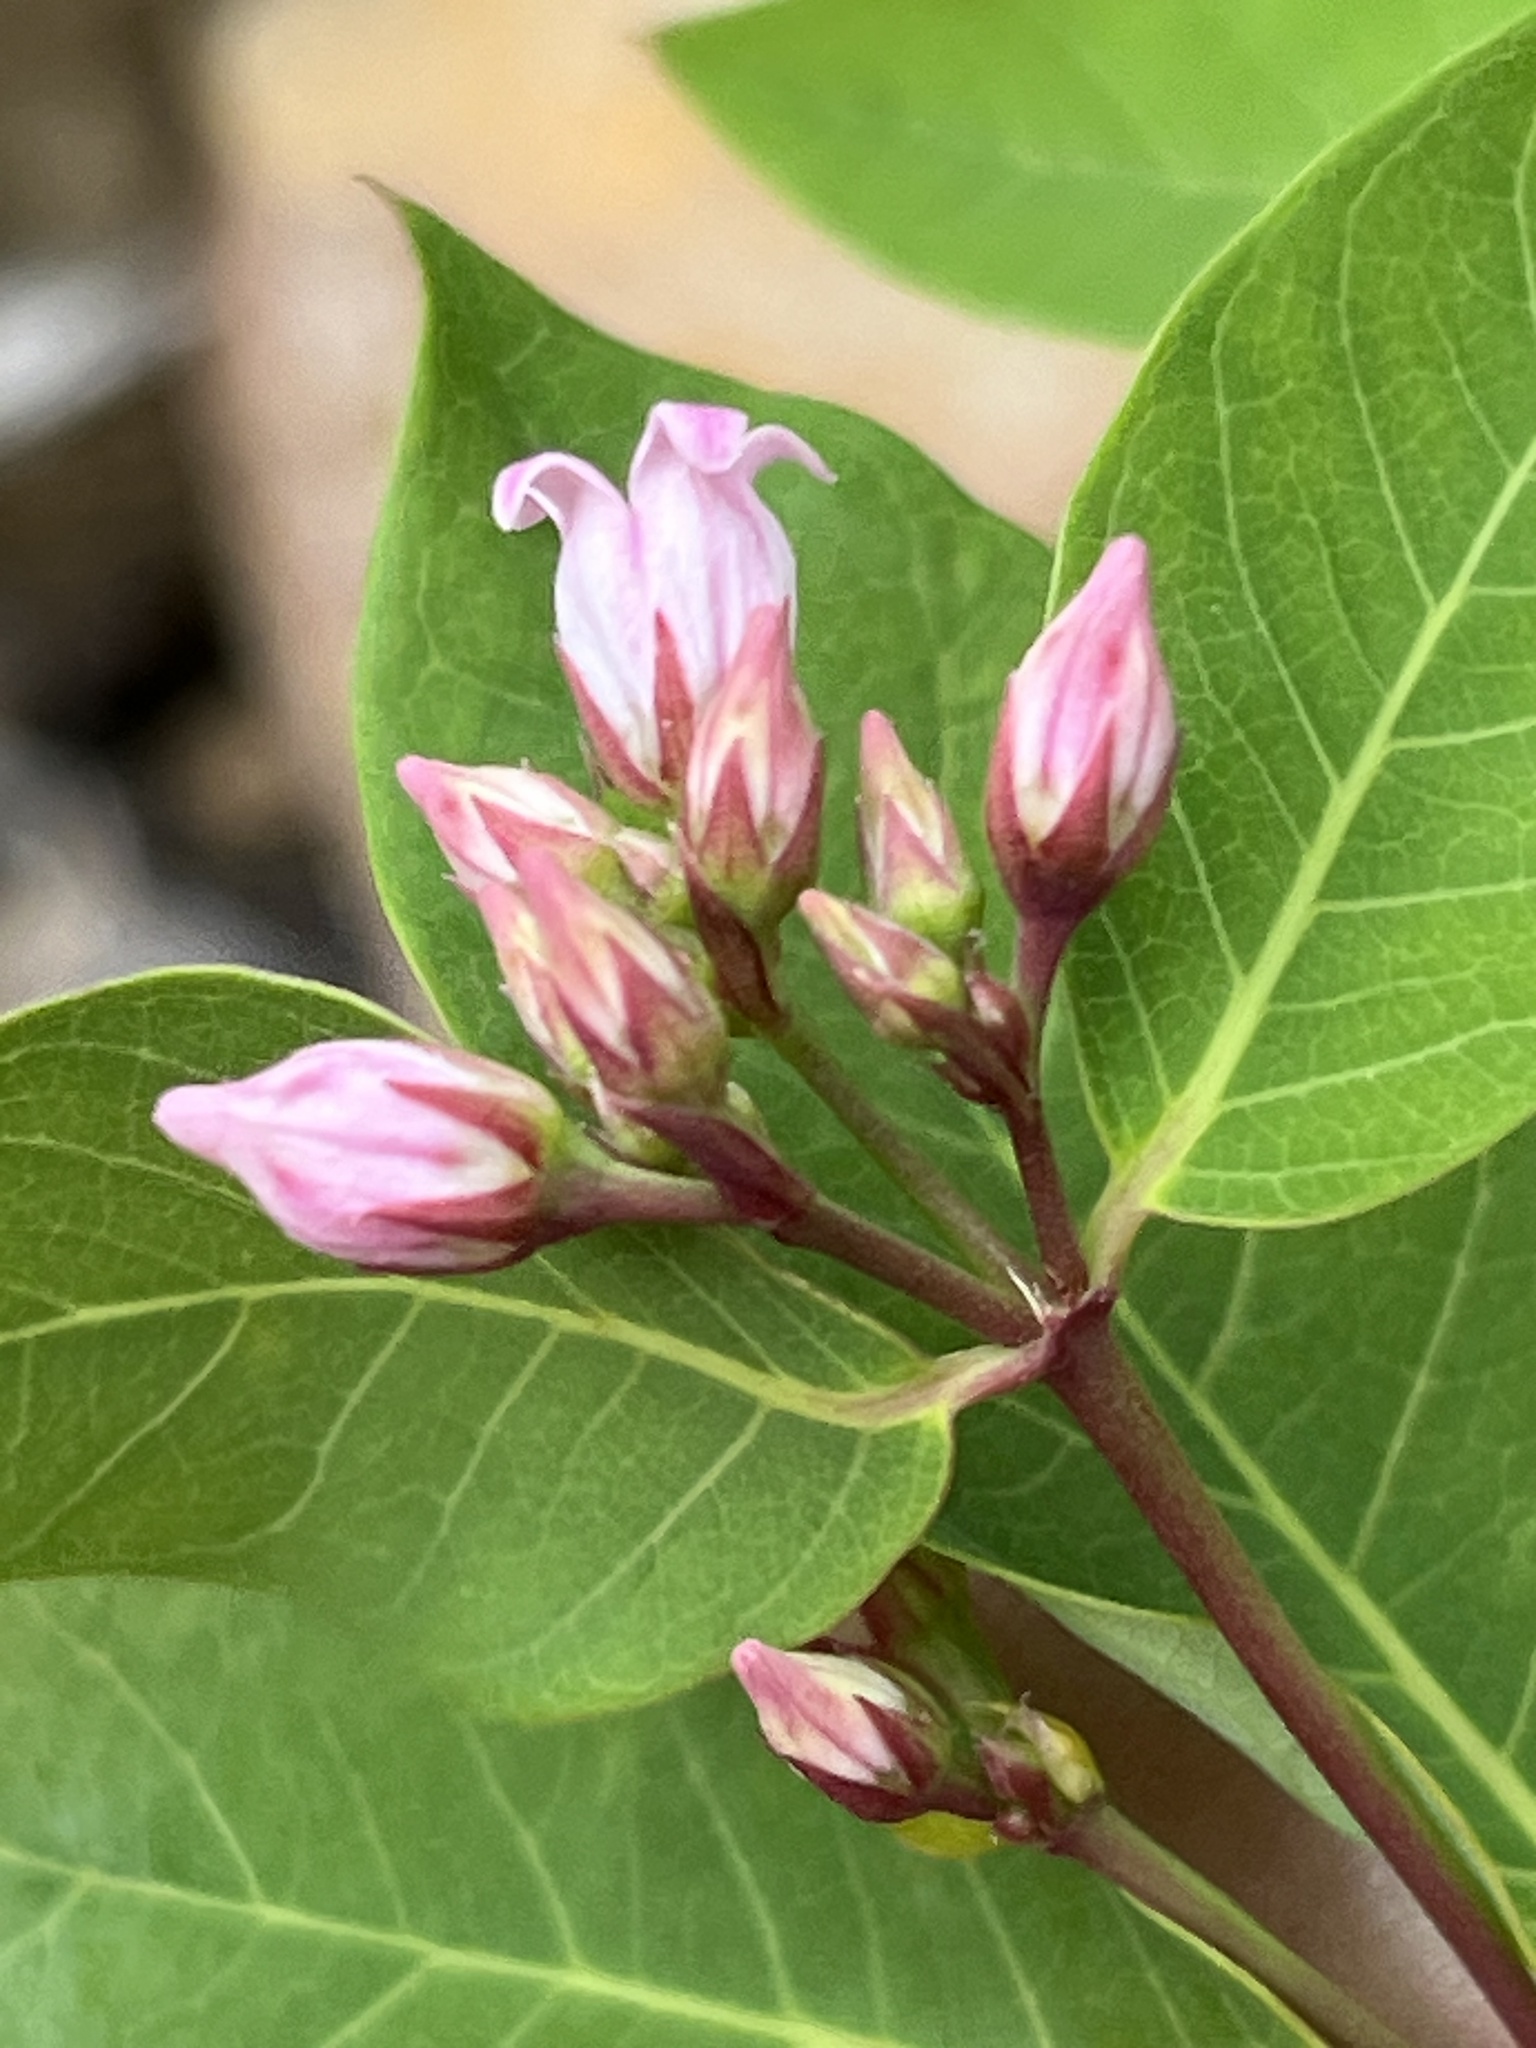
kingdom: Plantae
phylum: Tracheophyta
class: Magnoliopsida
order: Gentianales
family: Apocynaceae
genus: Apocynum
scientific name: Apocynum androsaemifolium
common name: Spreading dogbane
